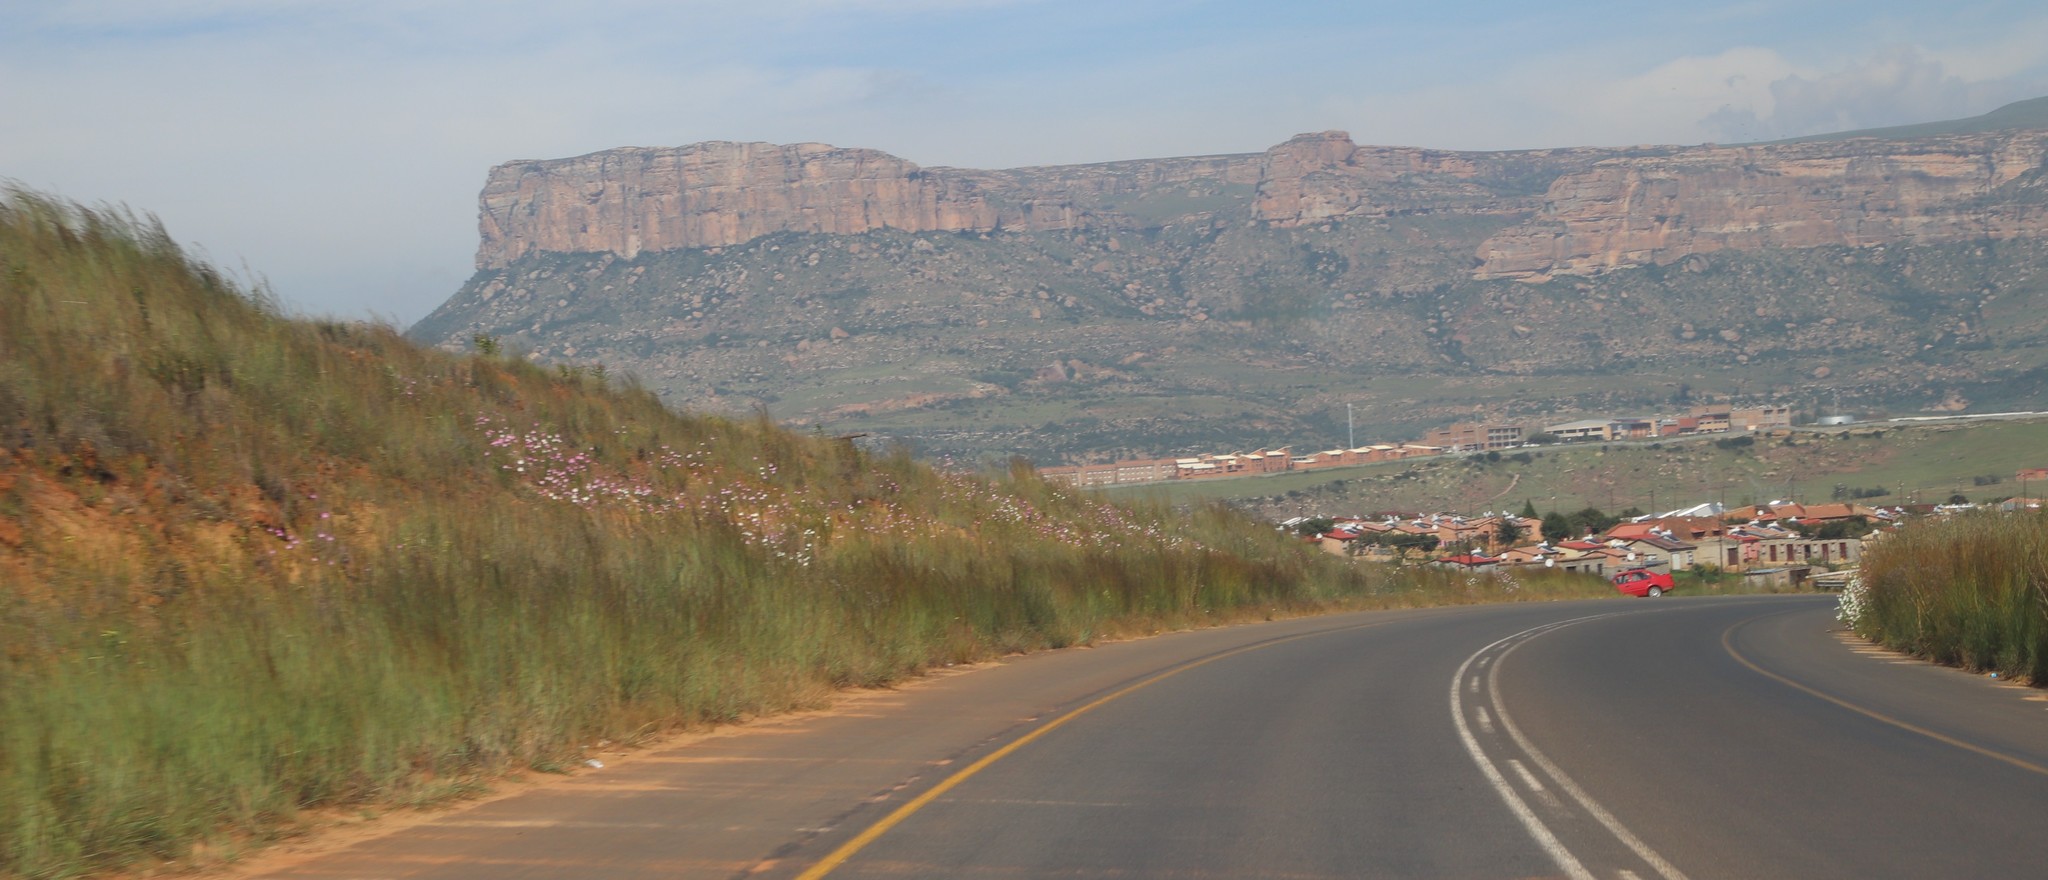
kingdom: Plantae
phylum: Tracheophyta
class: Magnoliopsida
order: Asterales
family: Asteraceae
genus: Cosmos
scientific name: Cosmos bipinnatus
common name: Garden cosmos
